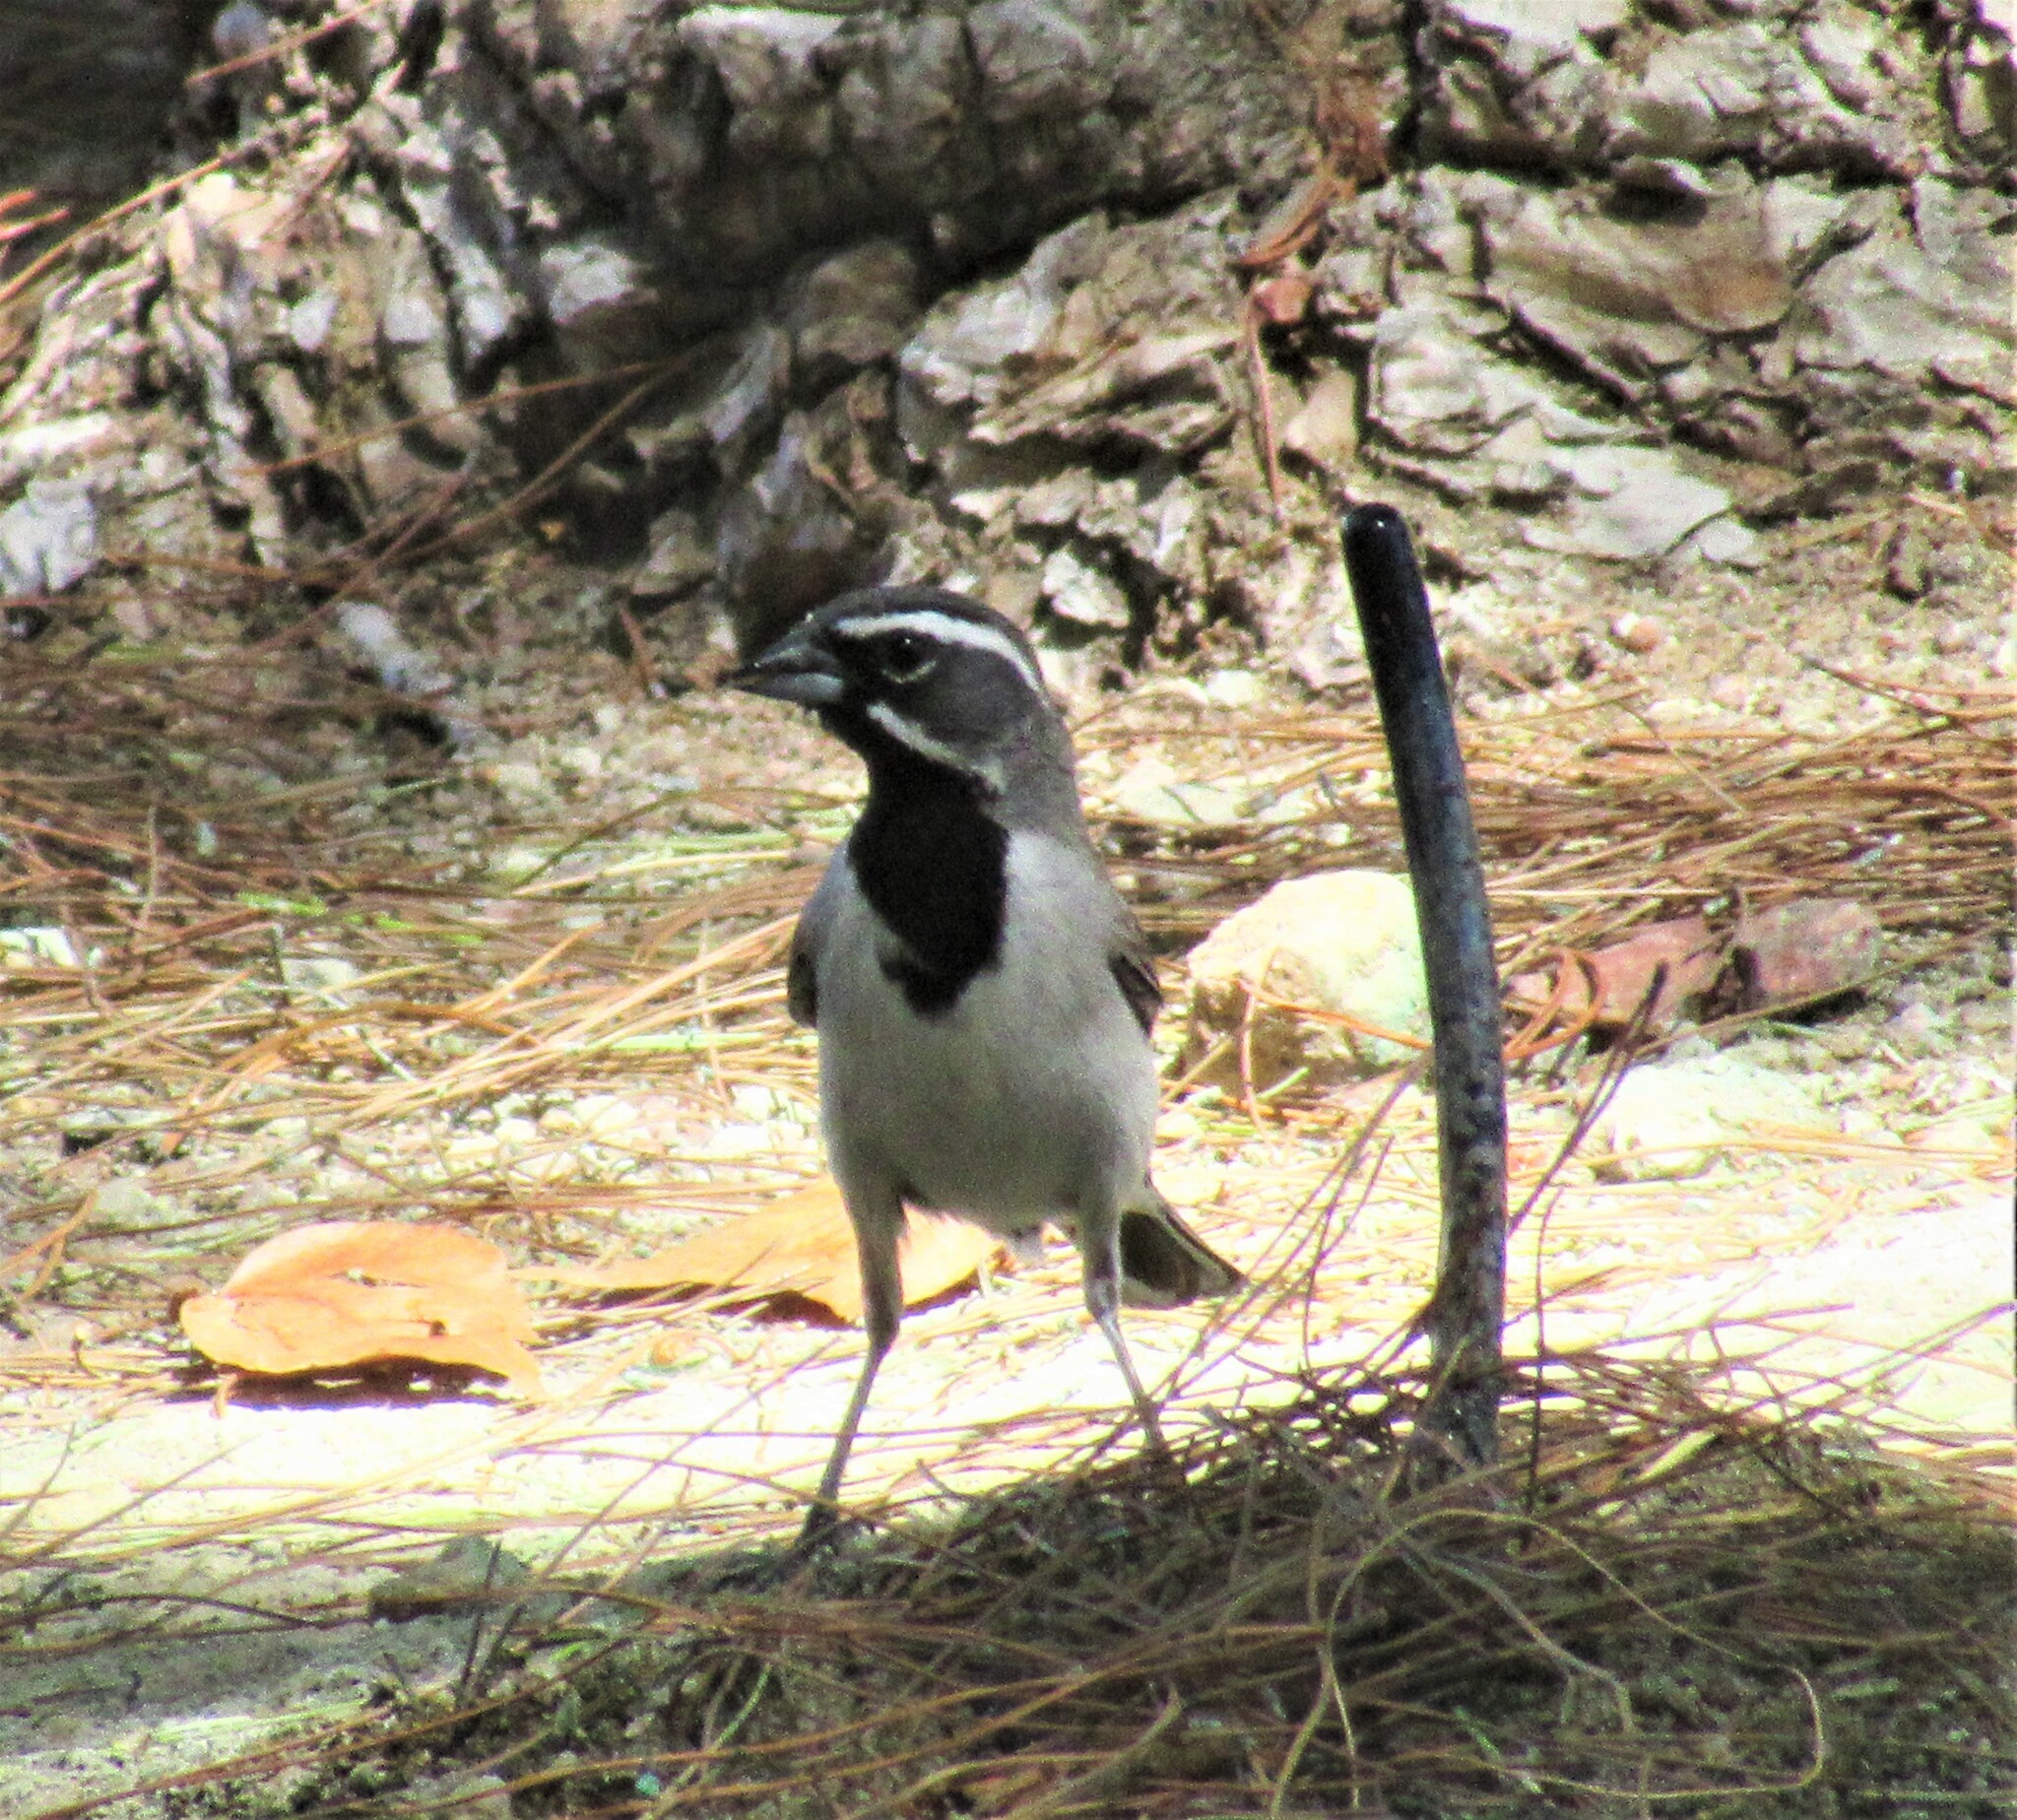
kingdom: Animalia
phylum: Chordata
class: Aves
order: Passeriformes
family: Passerellidae
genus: Amphispiza
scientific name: Amphispiza bilineata
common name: Black-throated sparrow
